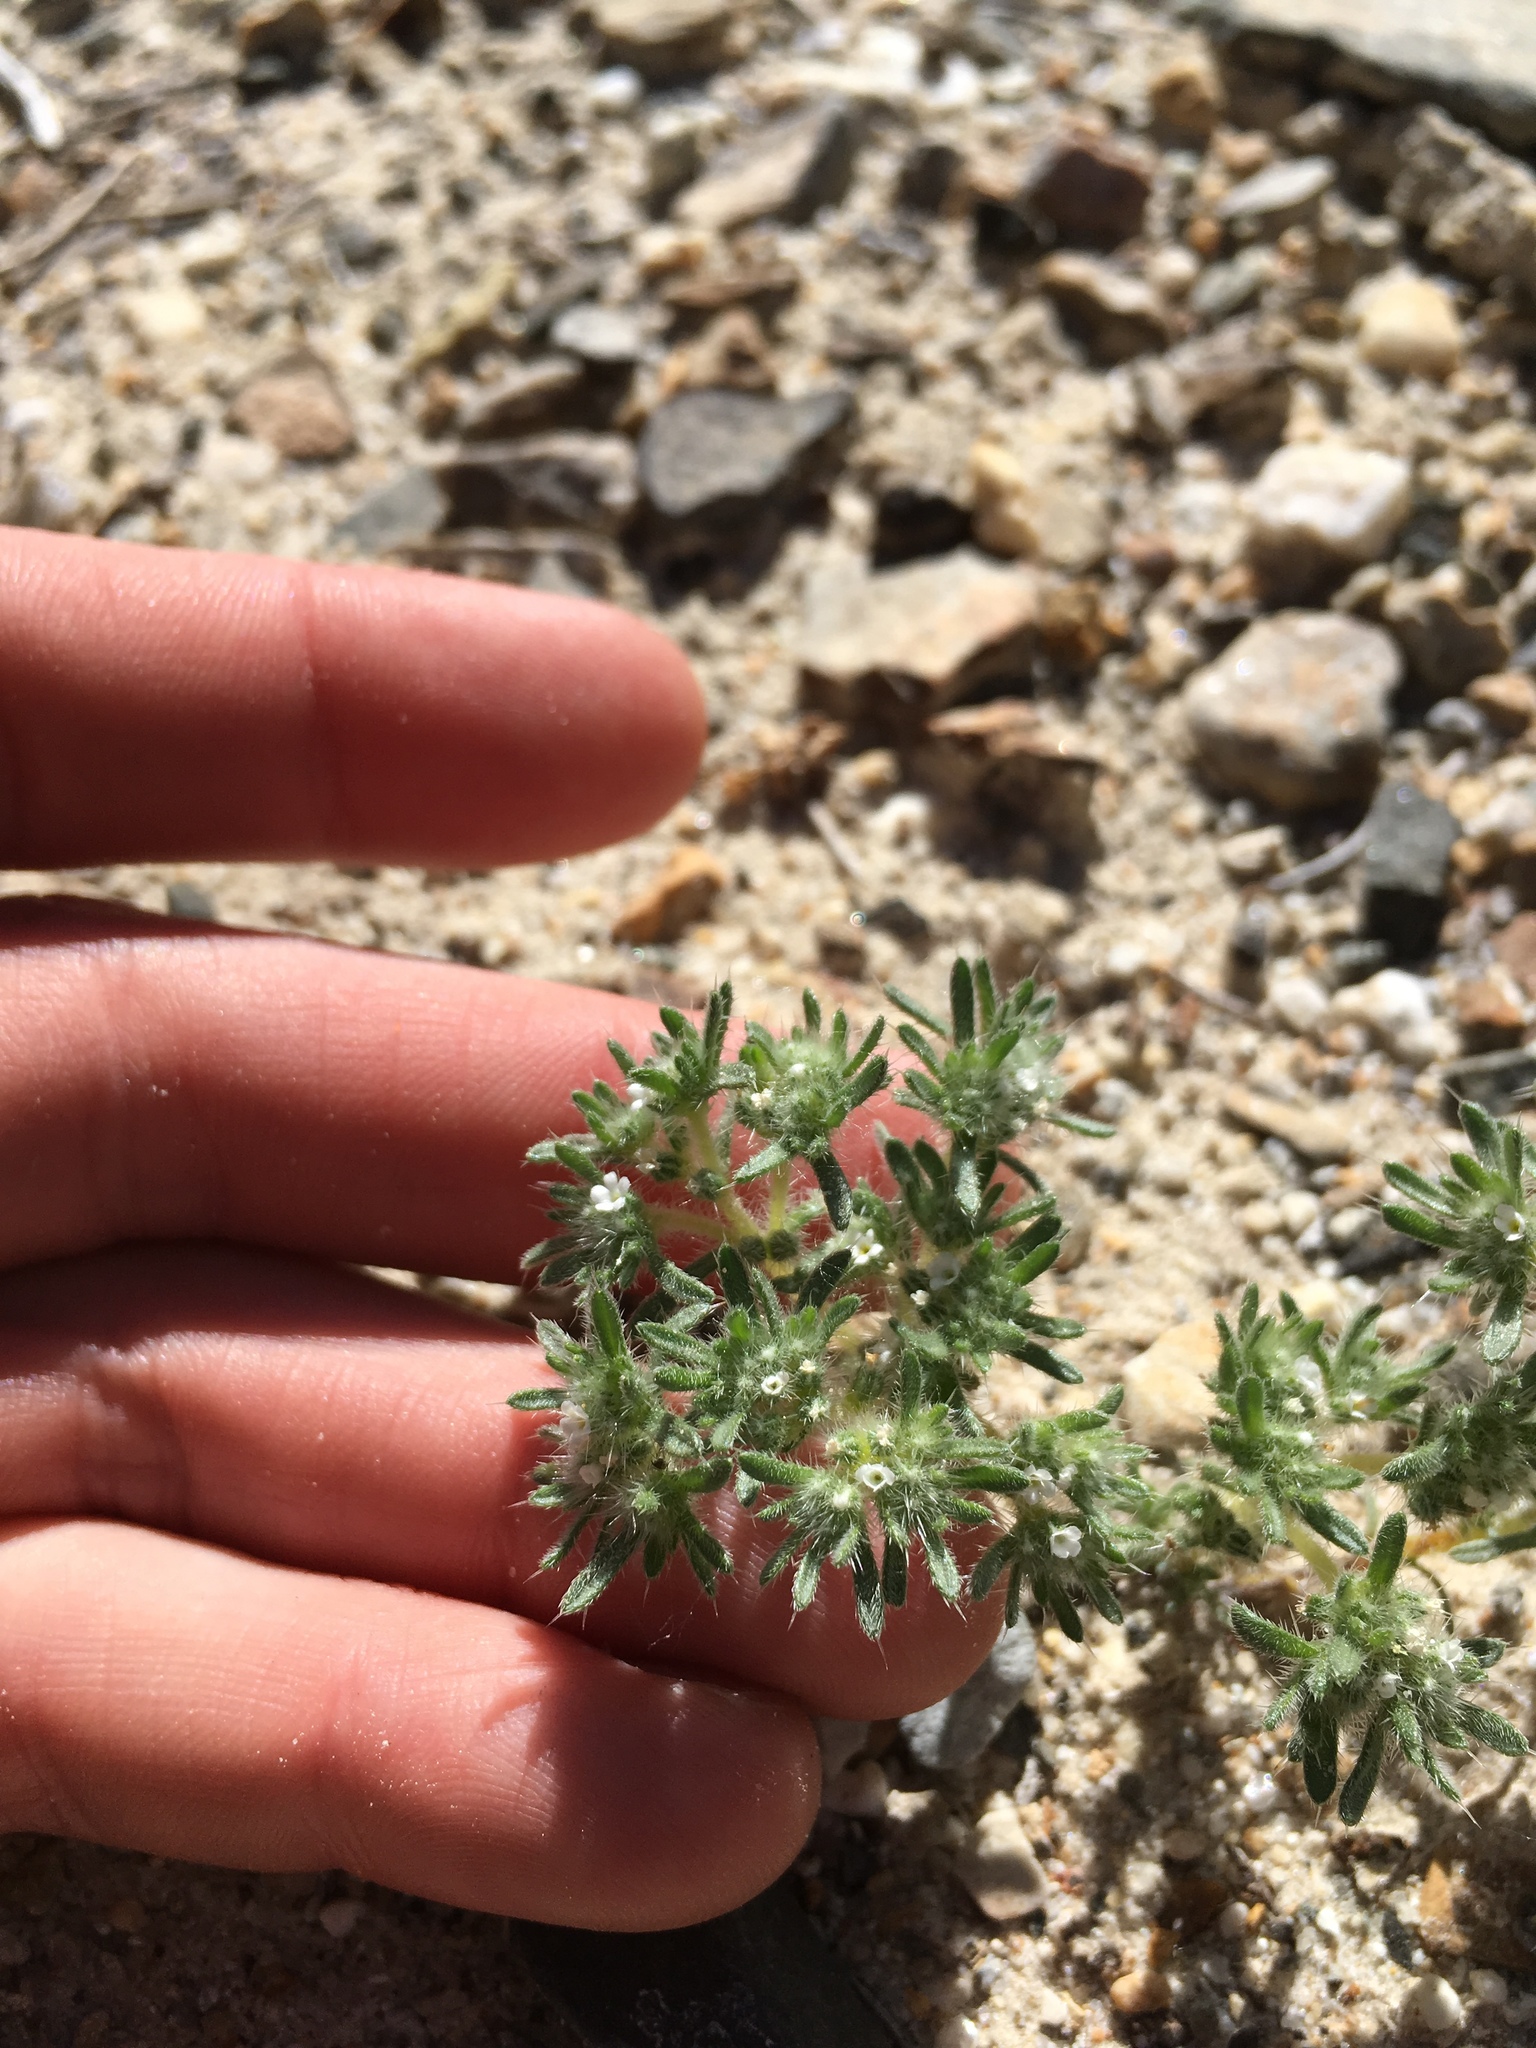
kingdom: Plantae
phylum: Tracheophyta
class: Magnoliopsida
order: Boraginales
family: Boraginaceae
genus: Greeneocharis
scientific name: Greeneocharis circumscissa
